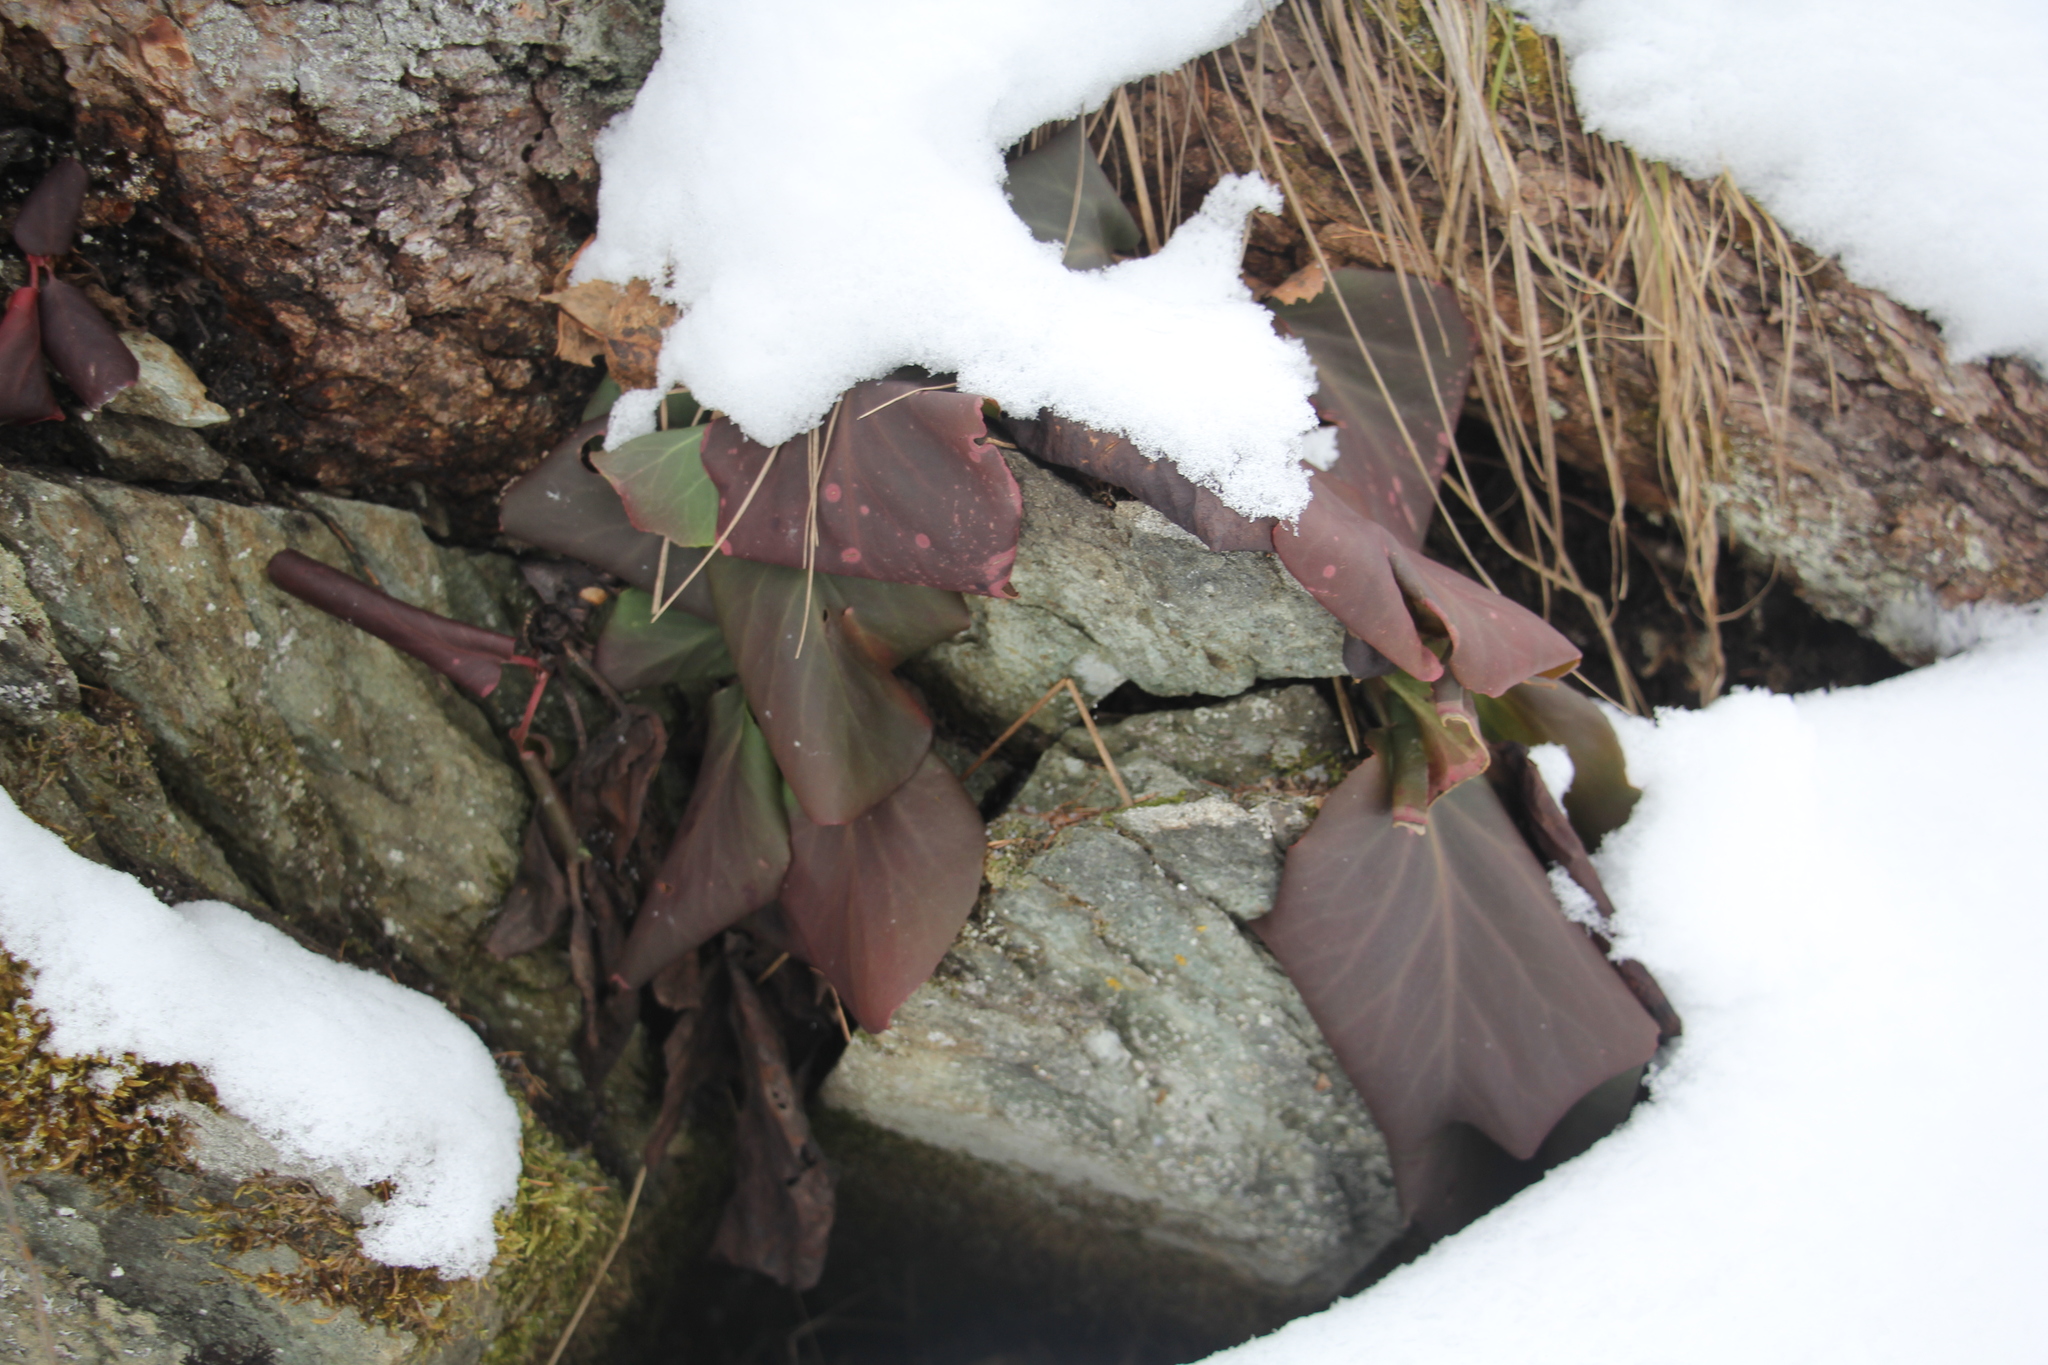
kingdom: Plantae
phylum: Tracheophyta
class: Magnoliopsida
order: Saxifragales
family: Saxifragaceae
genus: Bergenia
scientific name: Bergenia crassifolia
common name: Elephant-ears
